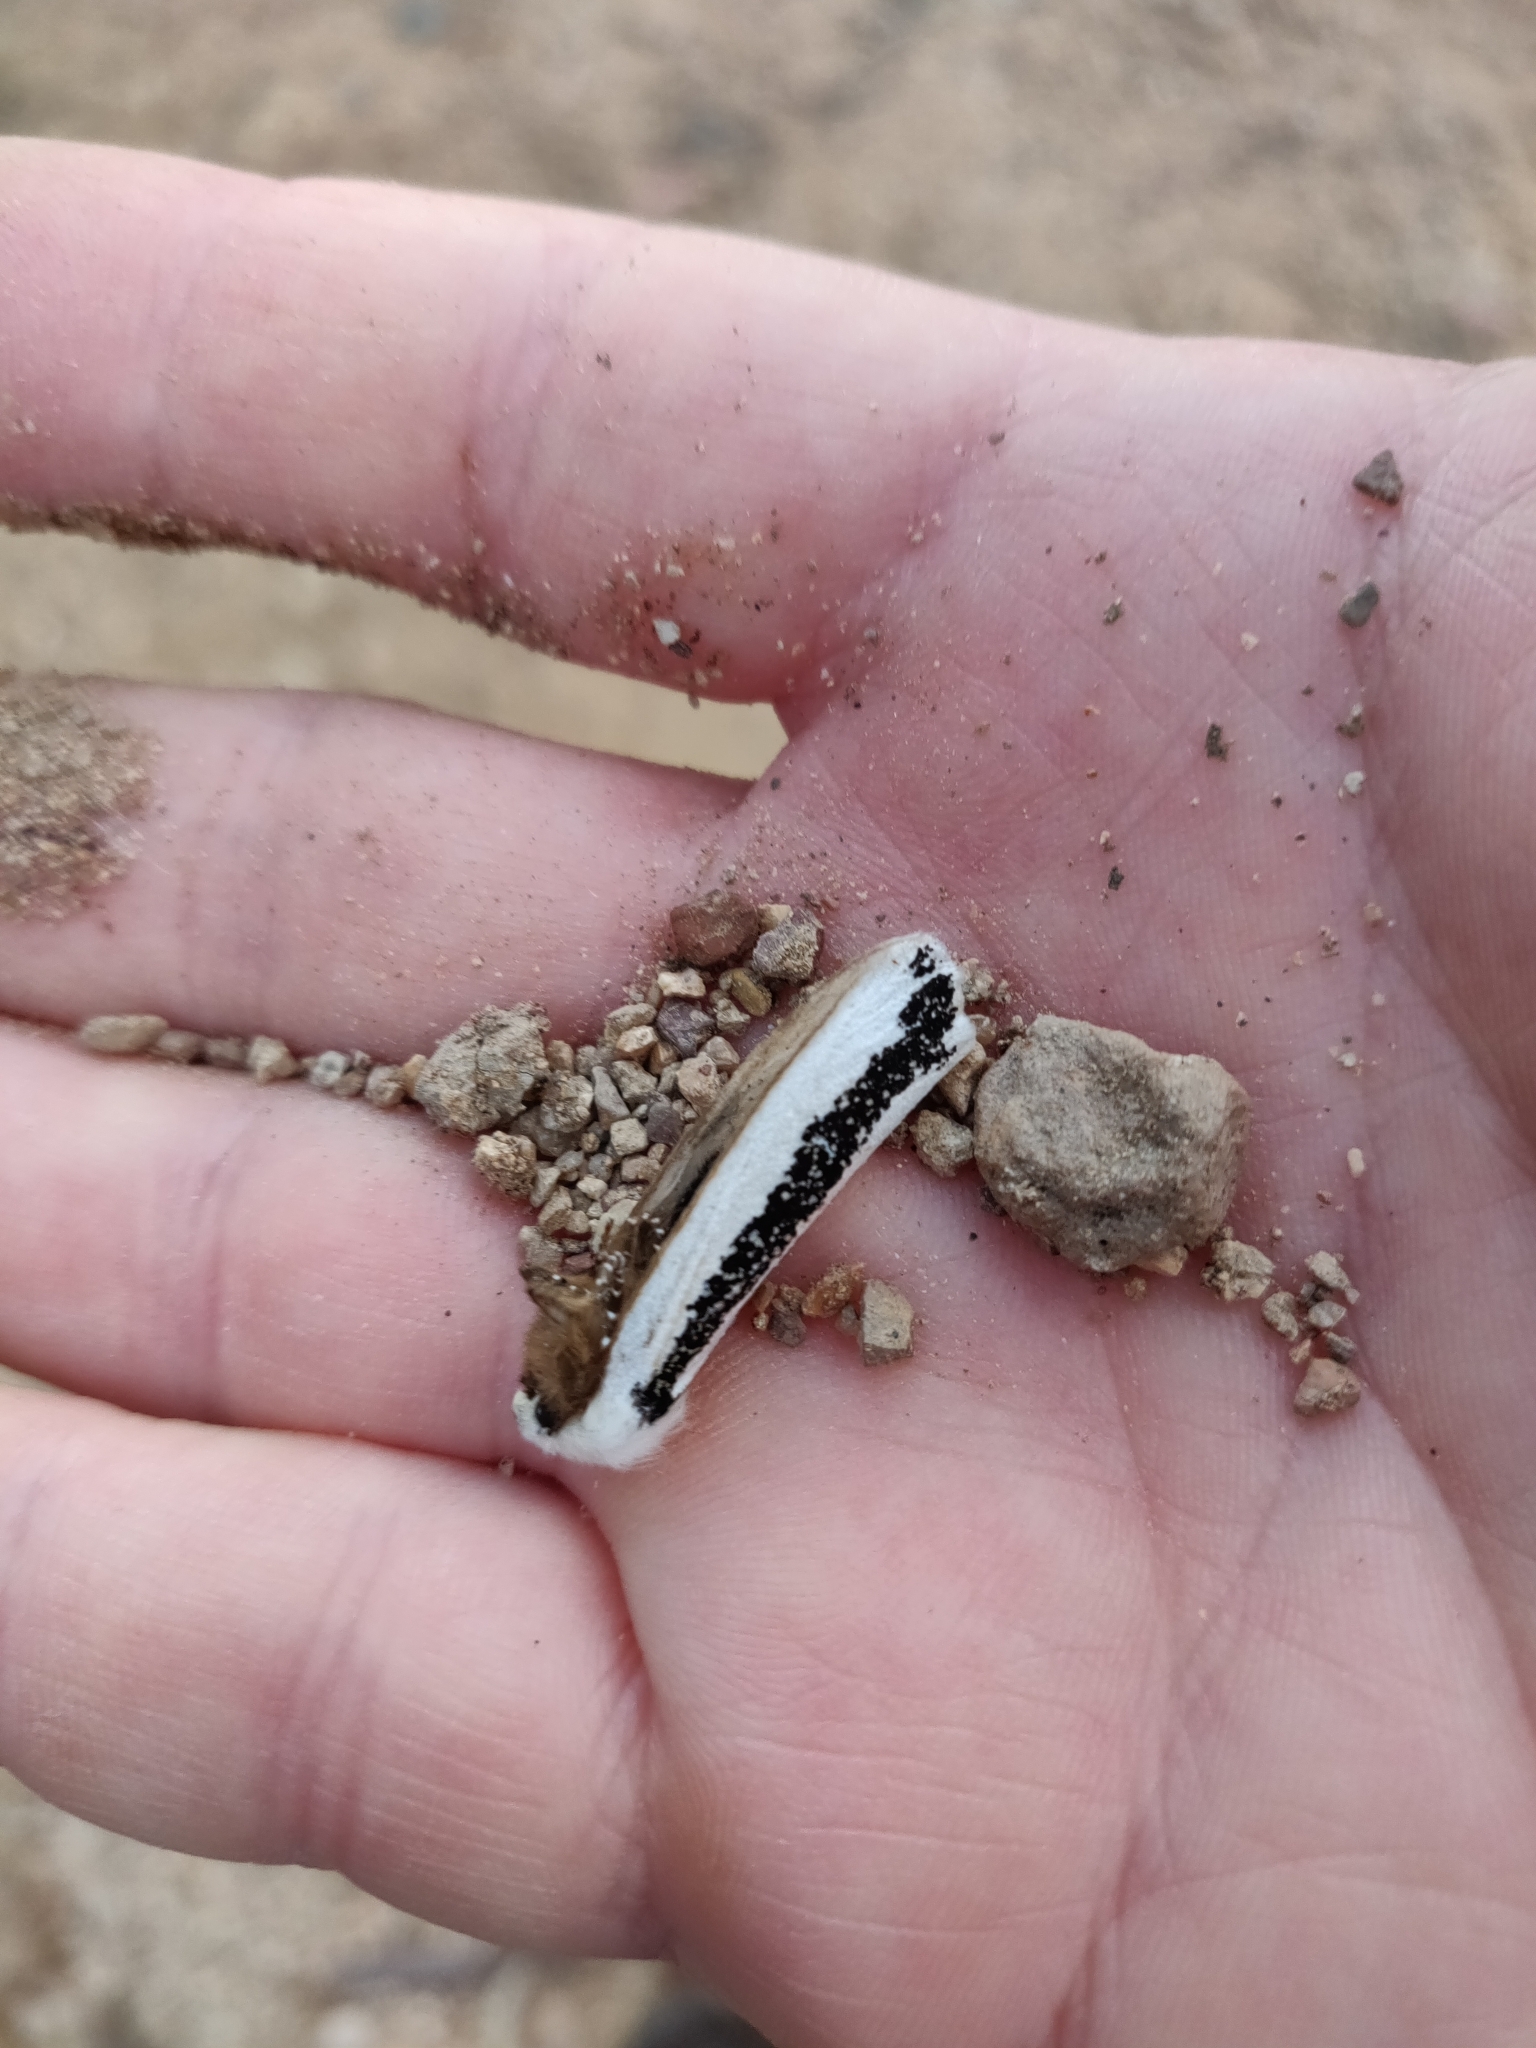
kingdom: Animalia
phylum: Arthropoda
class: Insecta
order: Lepidoptera
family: Oenosandridae
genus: Oenosandra
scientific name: Oenosandra boisduvalii
